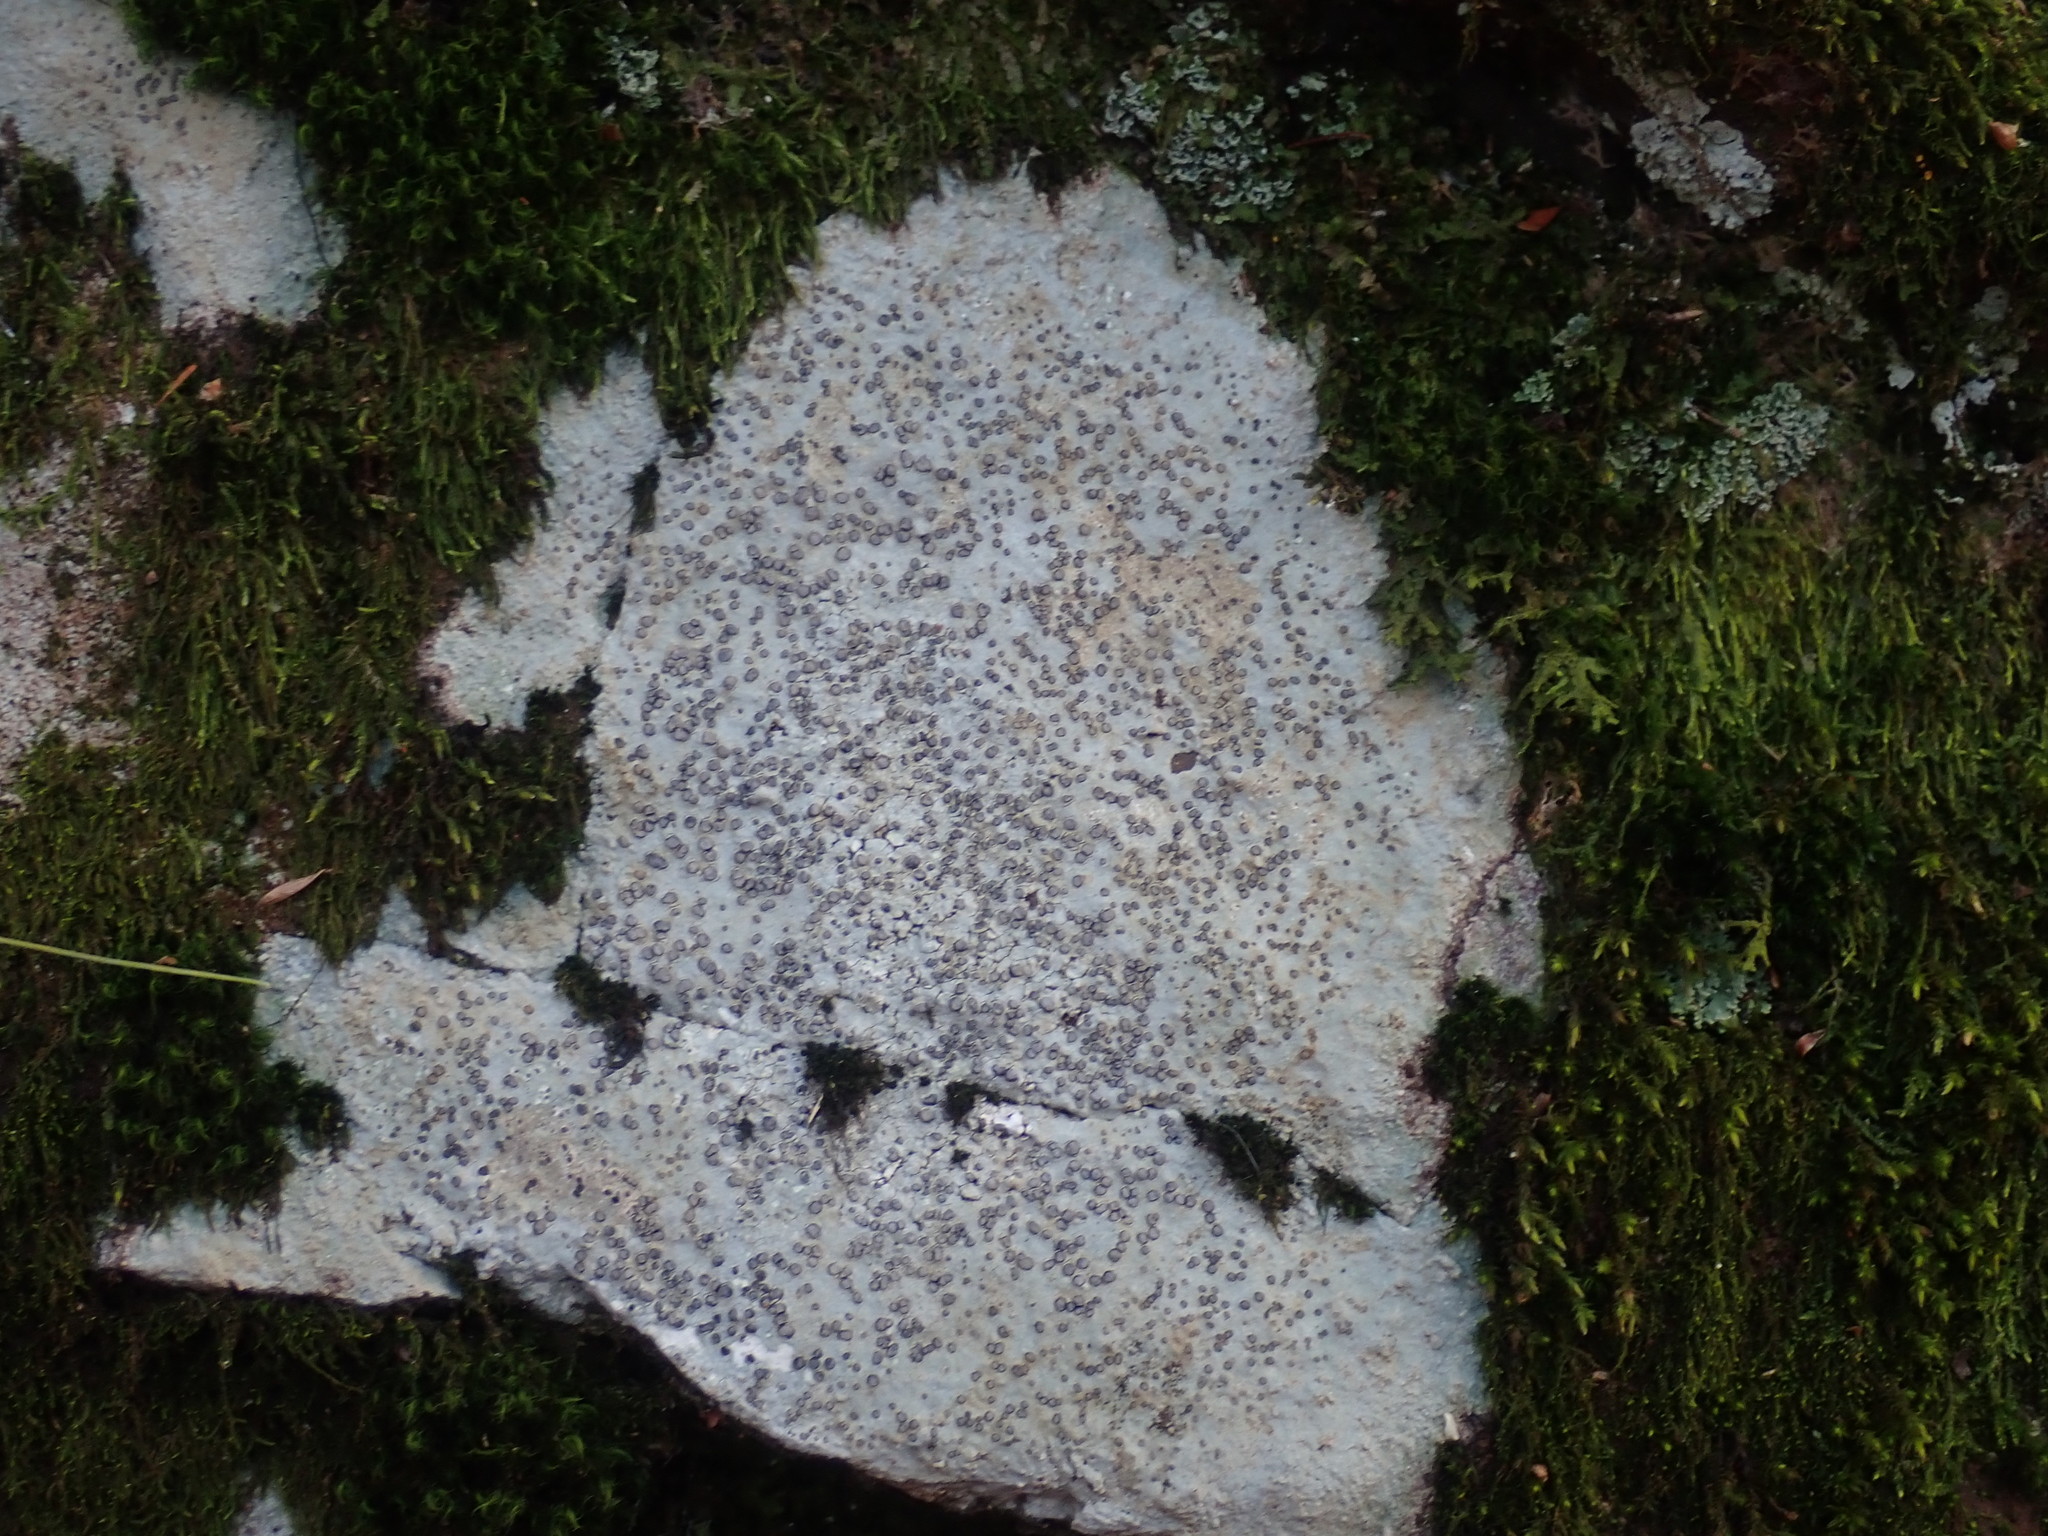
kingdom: Fungi
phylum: Ascomycota
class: Lecanoromycetes
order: Lecideales
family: Lecideaceae
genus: Porpidia
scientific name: Porpidia albocaerulescens
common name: Smokey-eyed boulder lichen
